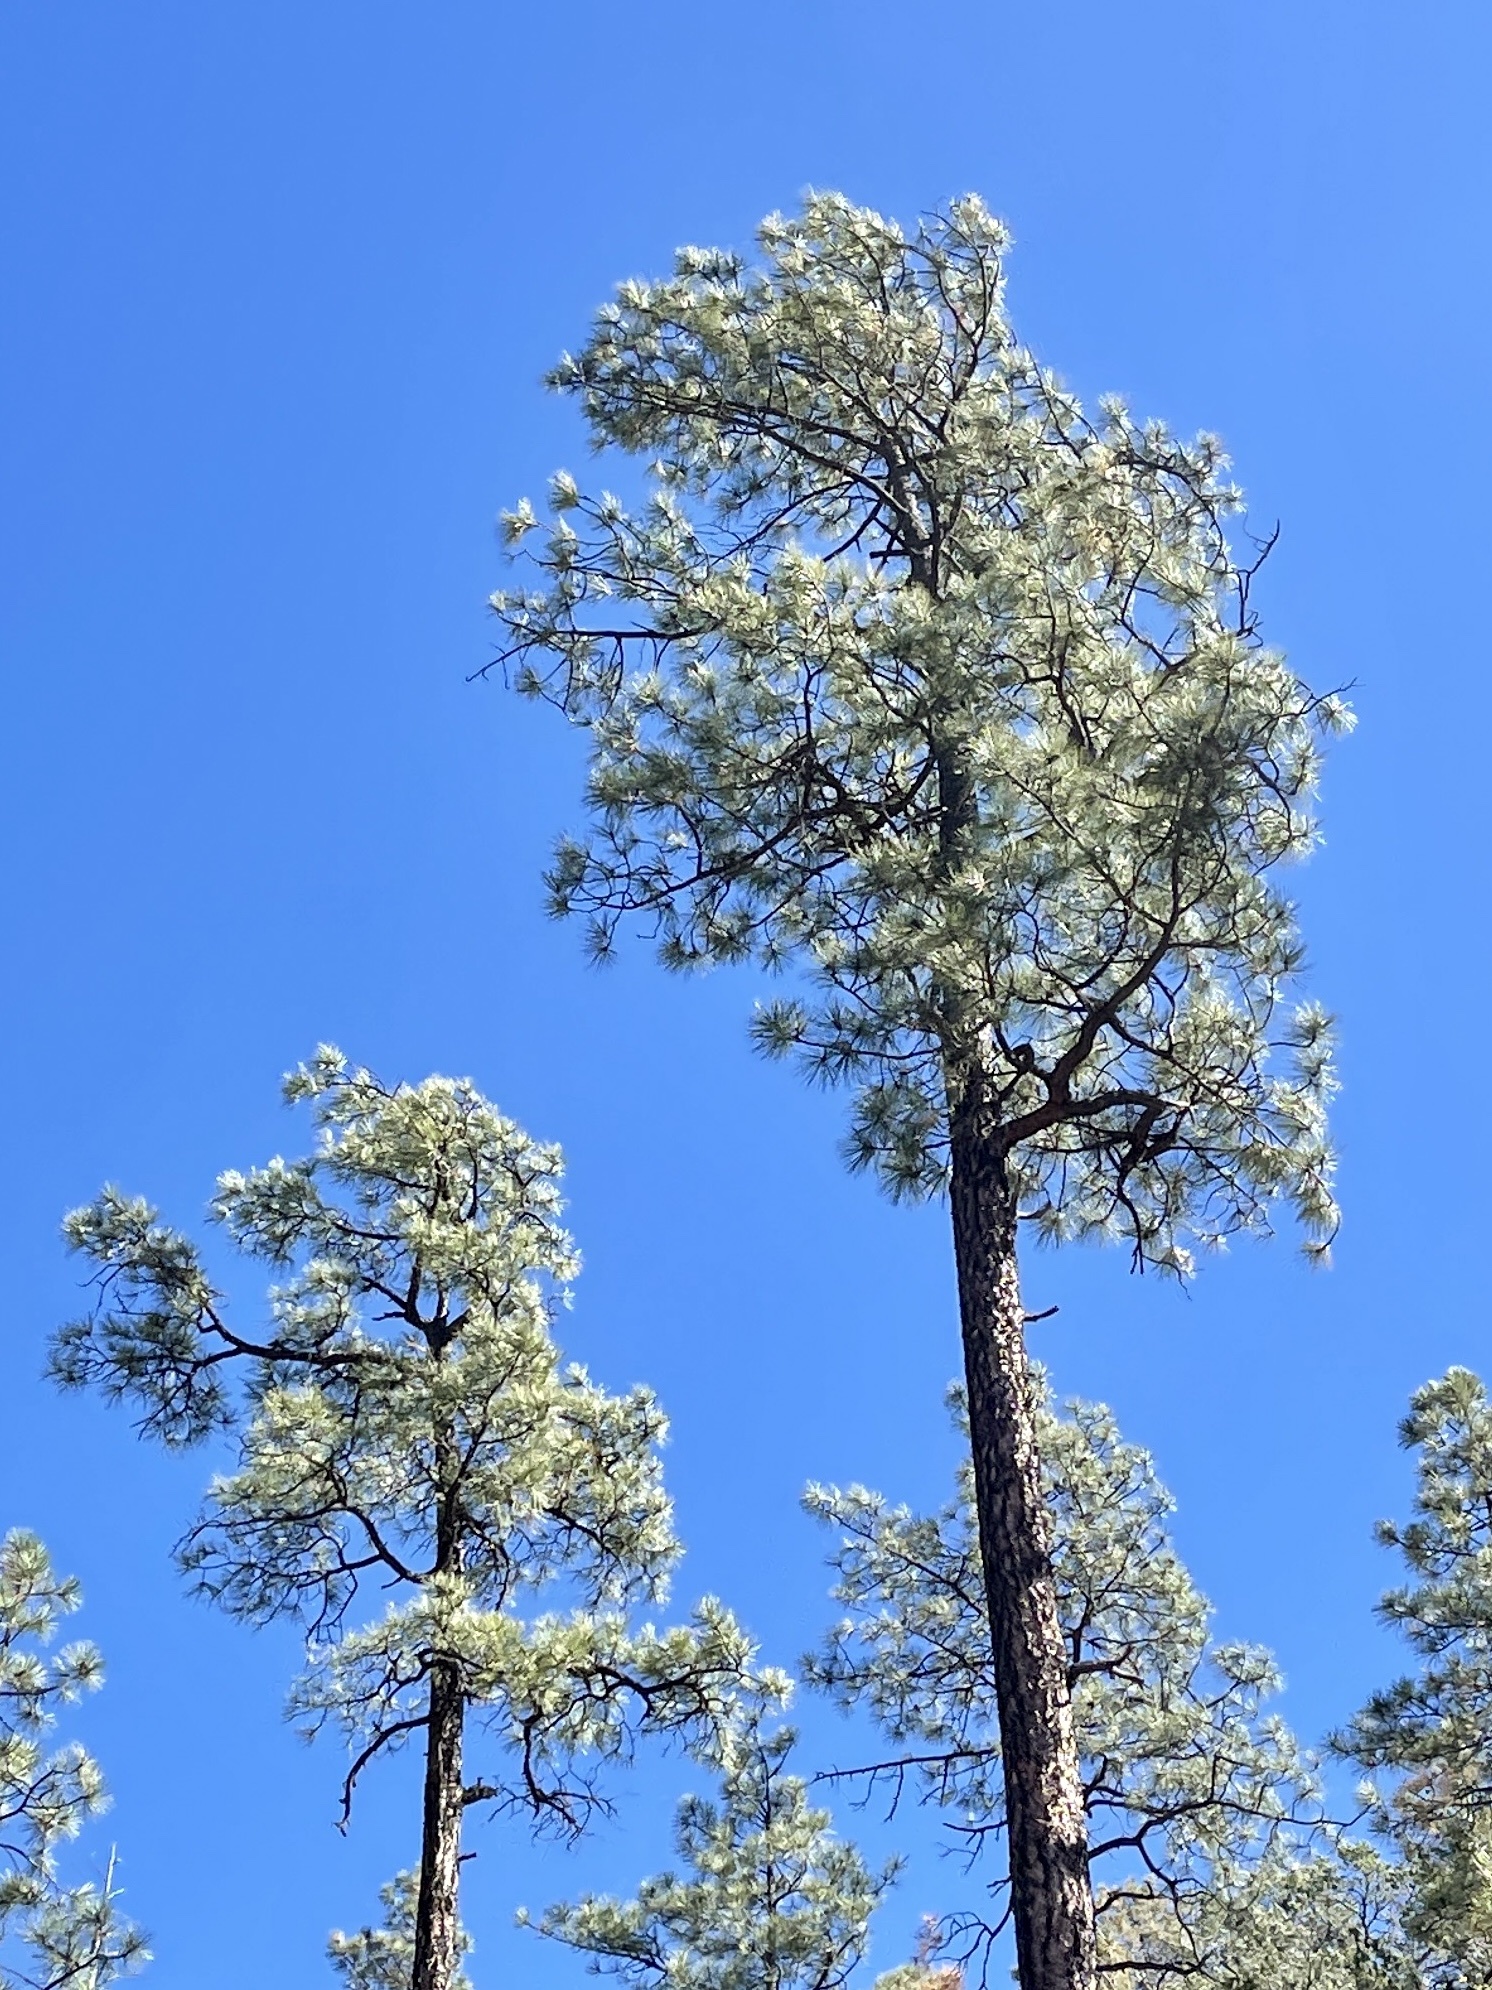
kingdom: Plantae
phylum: Tracheophyta
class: Pinopsida
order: Pinales
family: Pinaceae
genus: Pinus
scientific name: Pinus ponderosa
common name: Western yellow-pine
